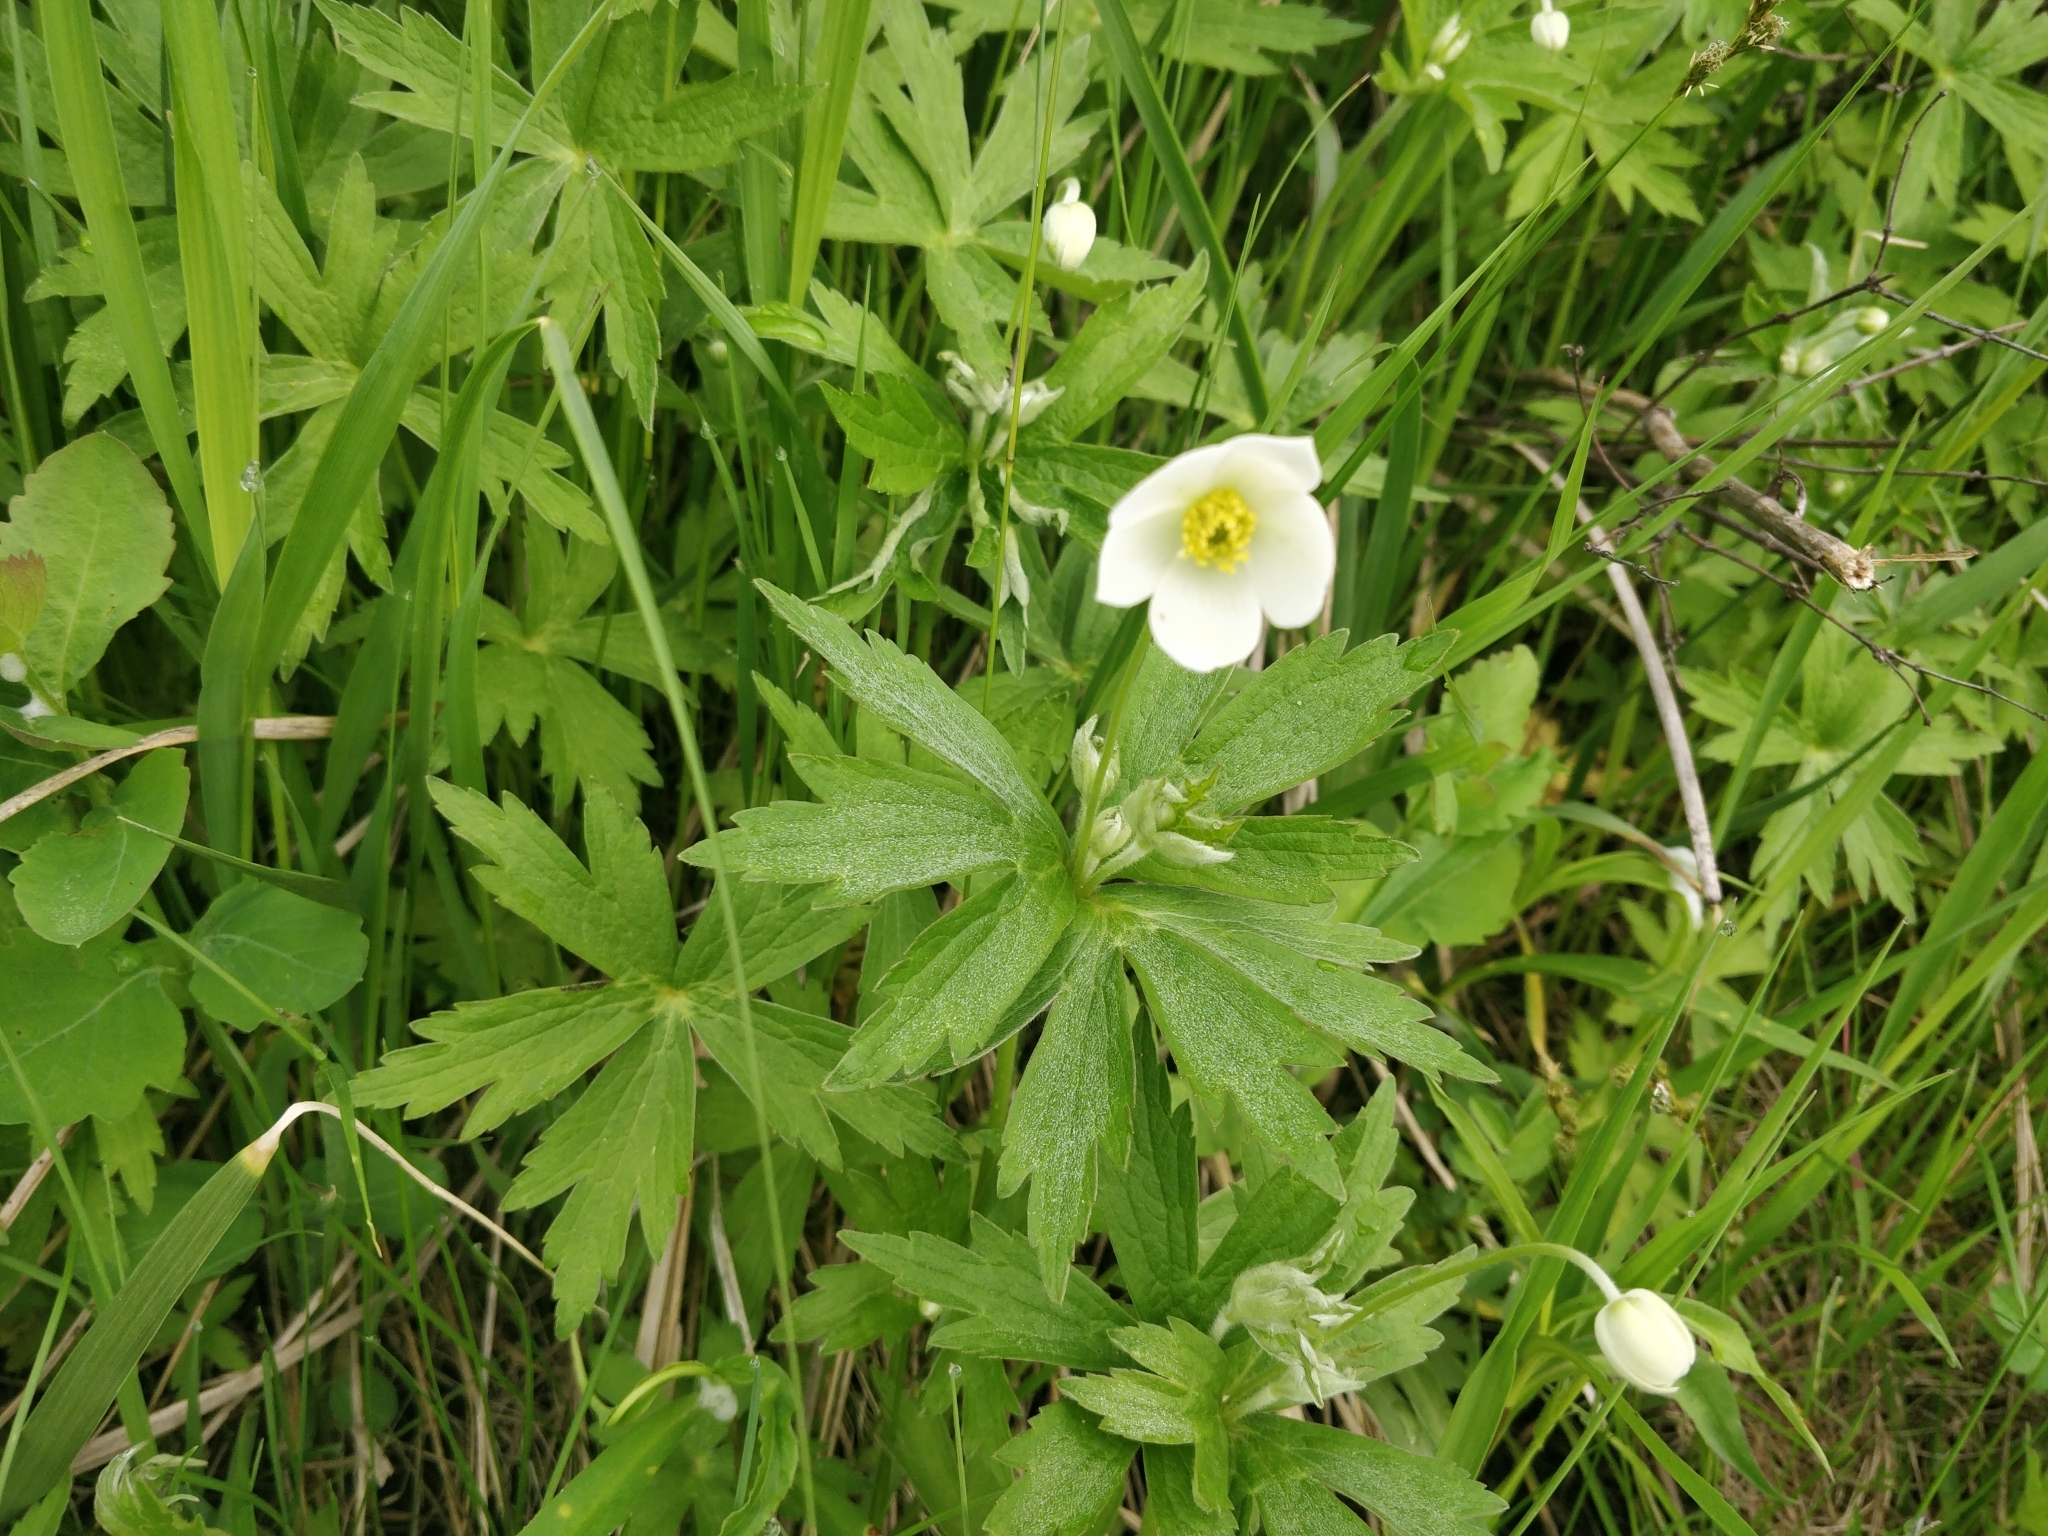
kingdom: Plantae
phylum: Tracheophyta
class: Magnoliopsida
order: Ranunculales
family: Ranunculaceae
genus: Anemonastrum
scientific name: Anemonastrum canadense
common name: Canada anemone
